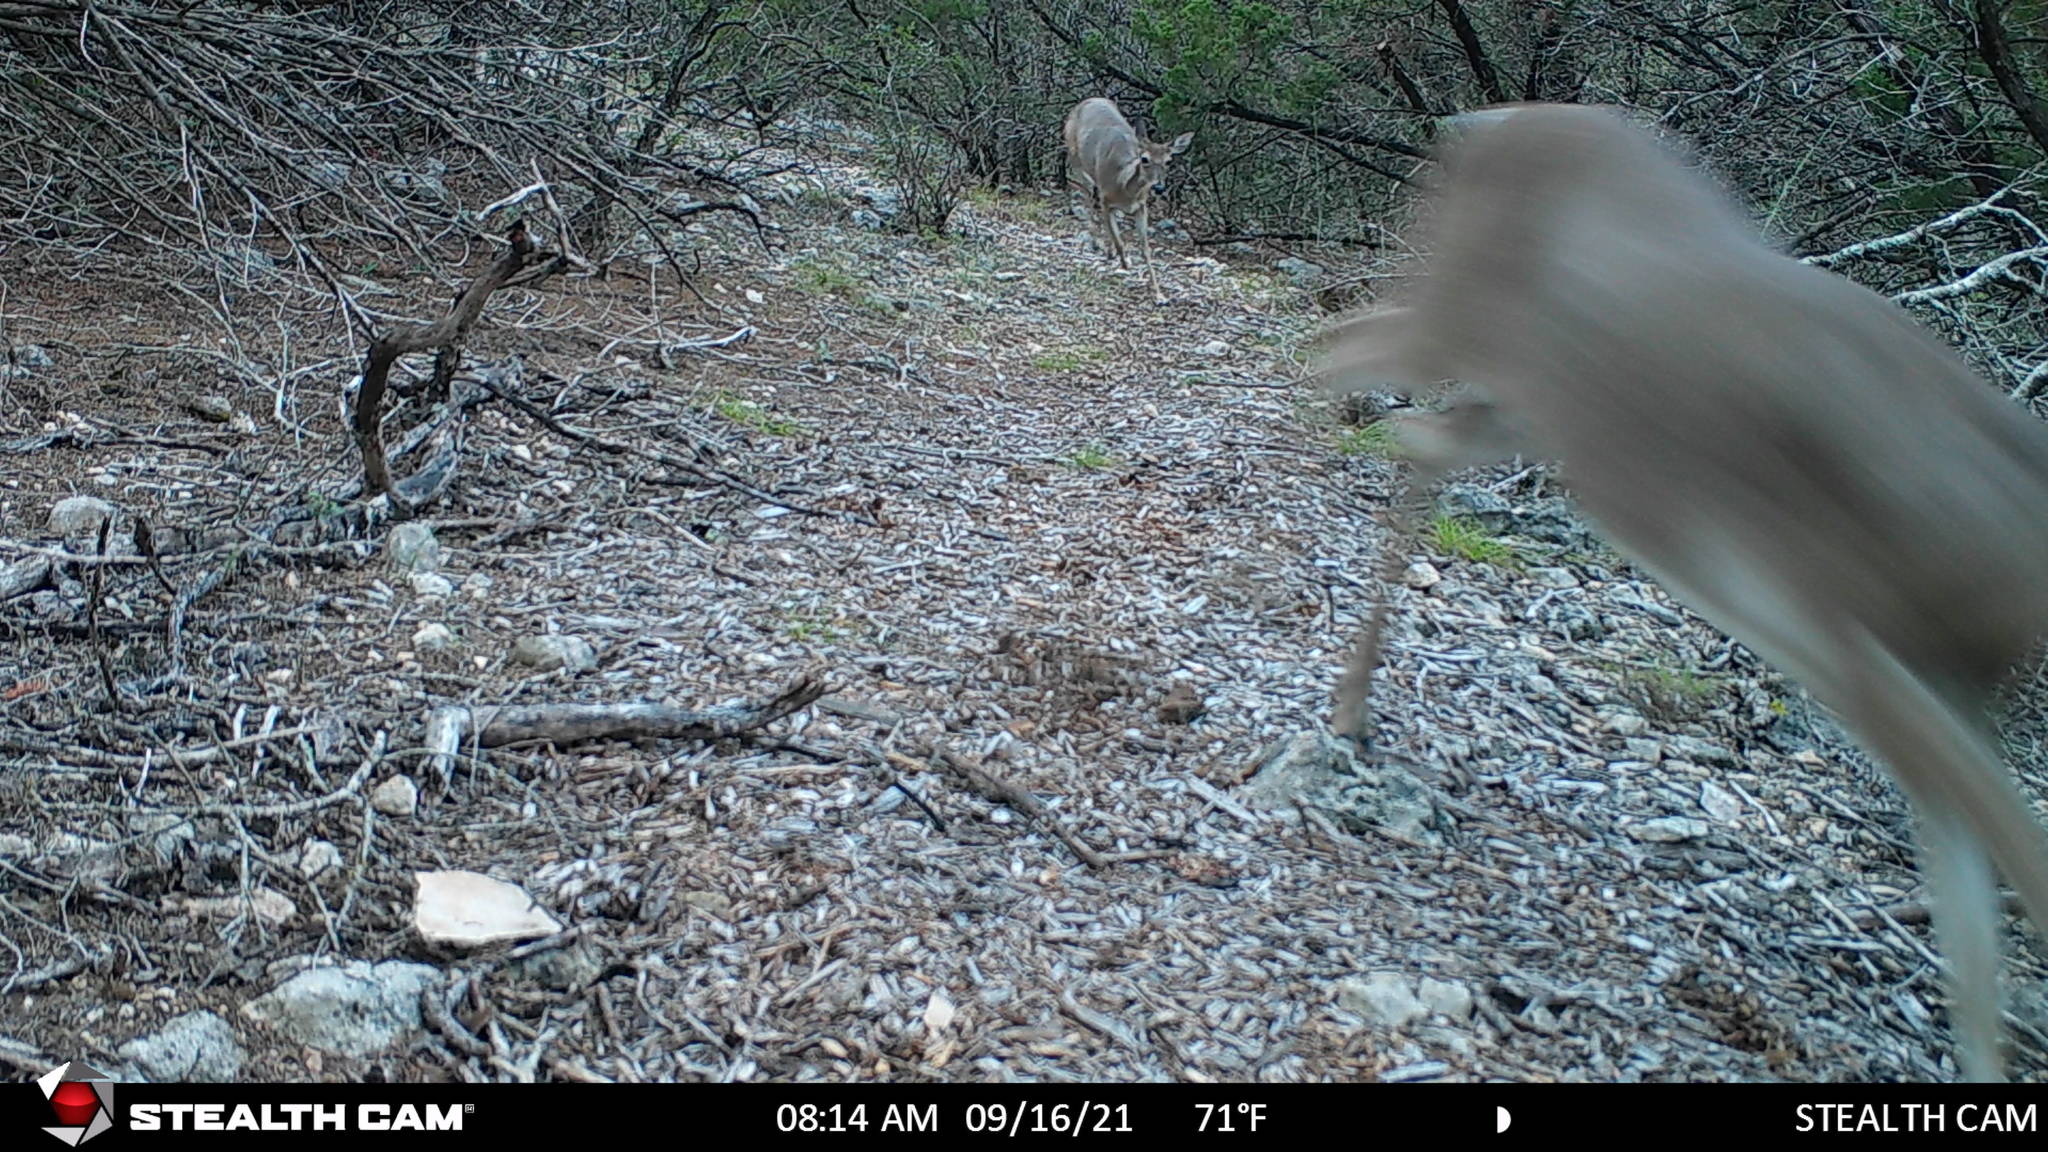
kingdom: Animalia
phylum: Chordata
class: Mammalia
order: Artiodactyla
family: Cervidae
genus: Odocoileus
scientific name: Odocoileus virginianus
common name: White-tailed deer
